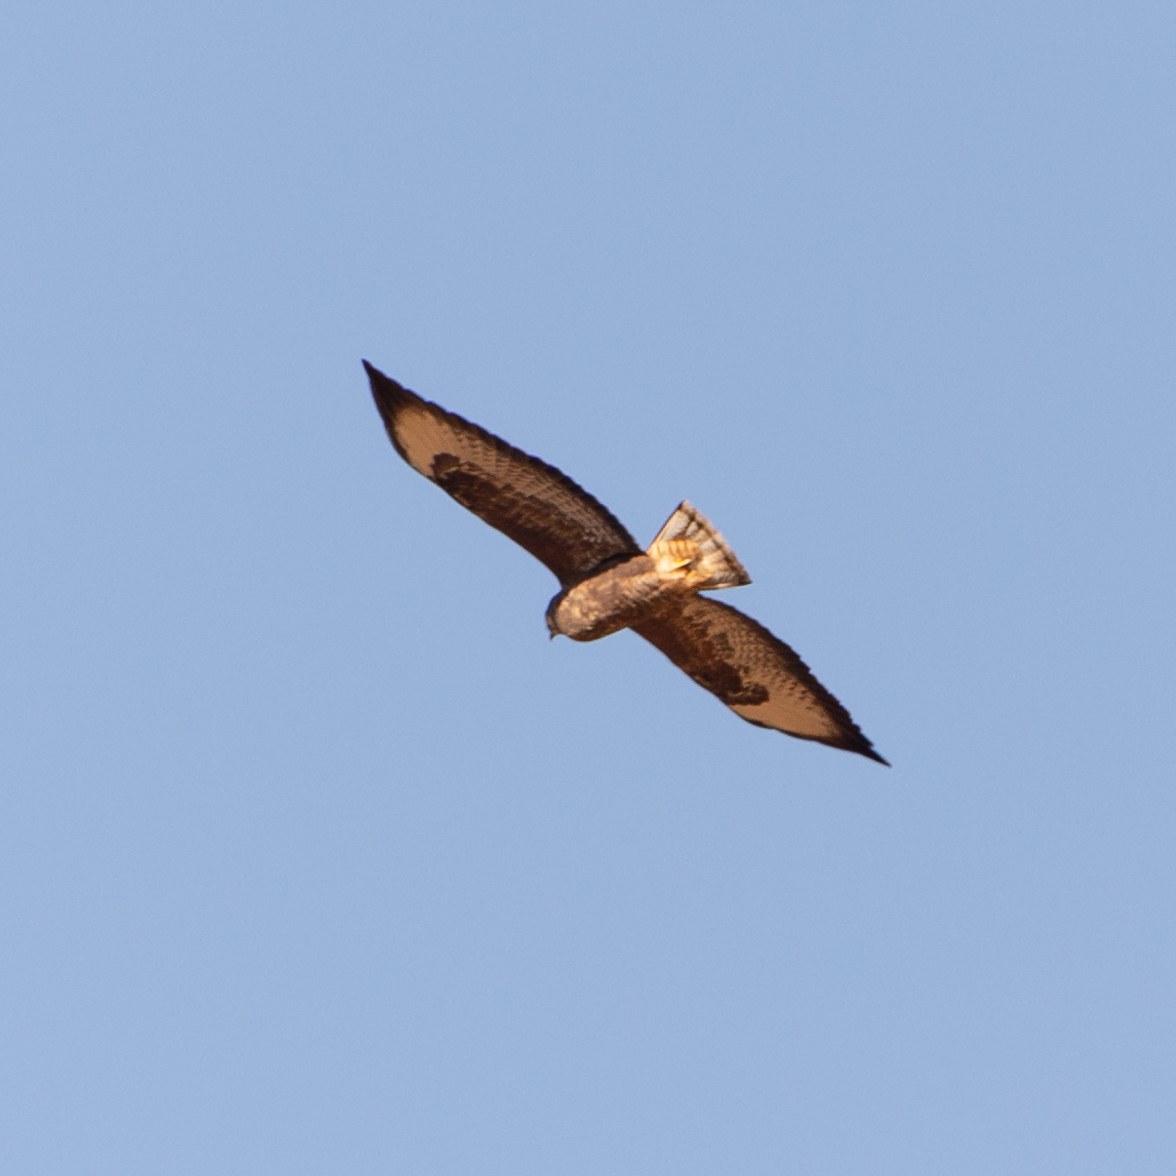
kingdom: Animalia
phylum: Chordata
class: Aves
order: Accipitriformes
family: Accipitridae
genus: Buteo
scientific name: Buteo buteo
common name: Common buzzard
